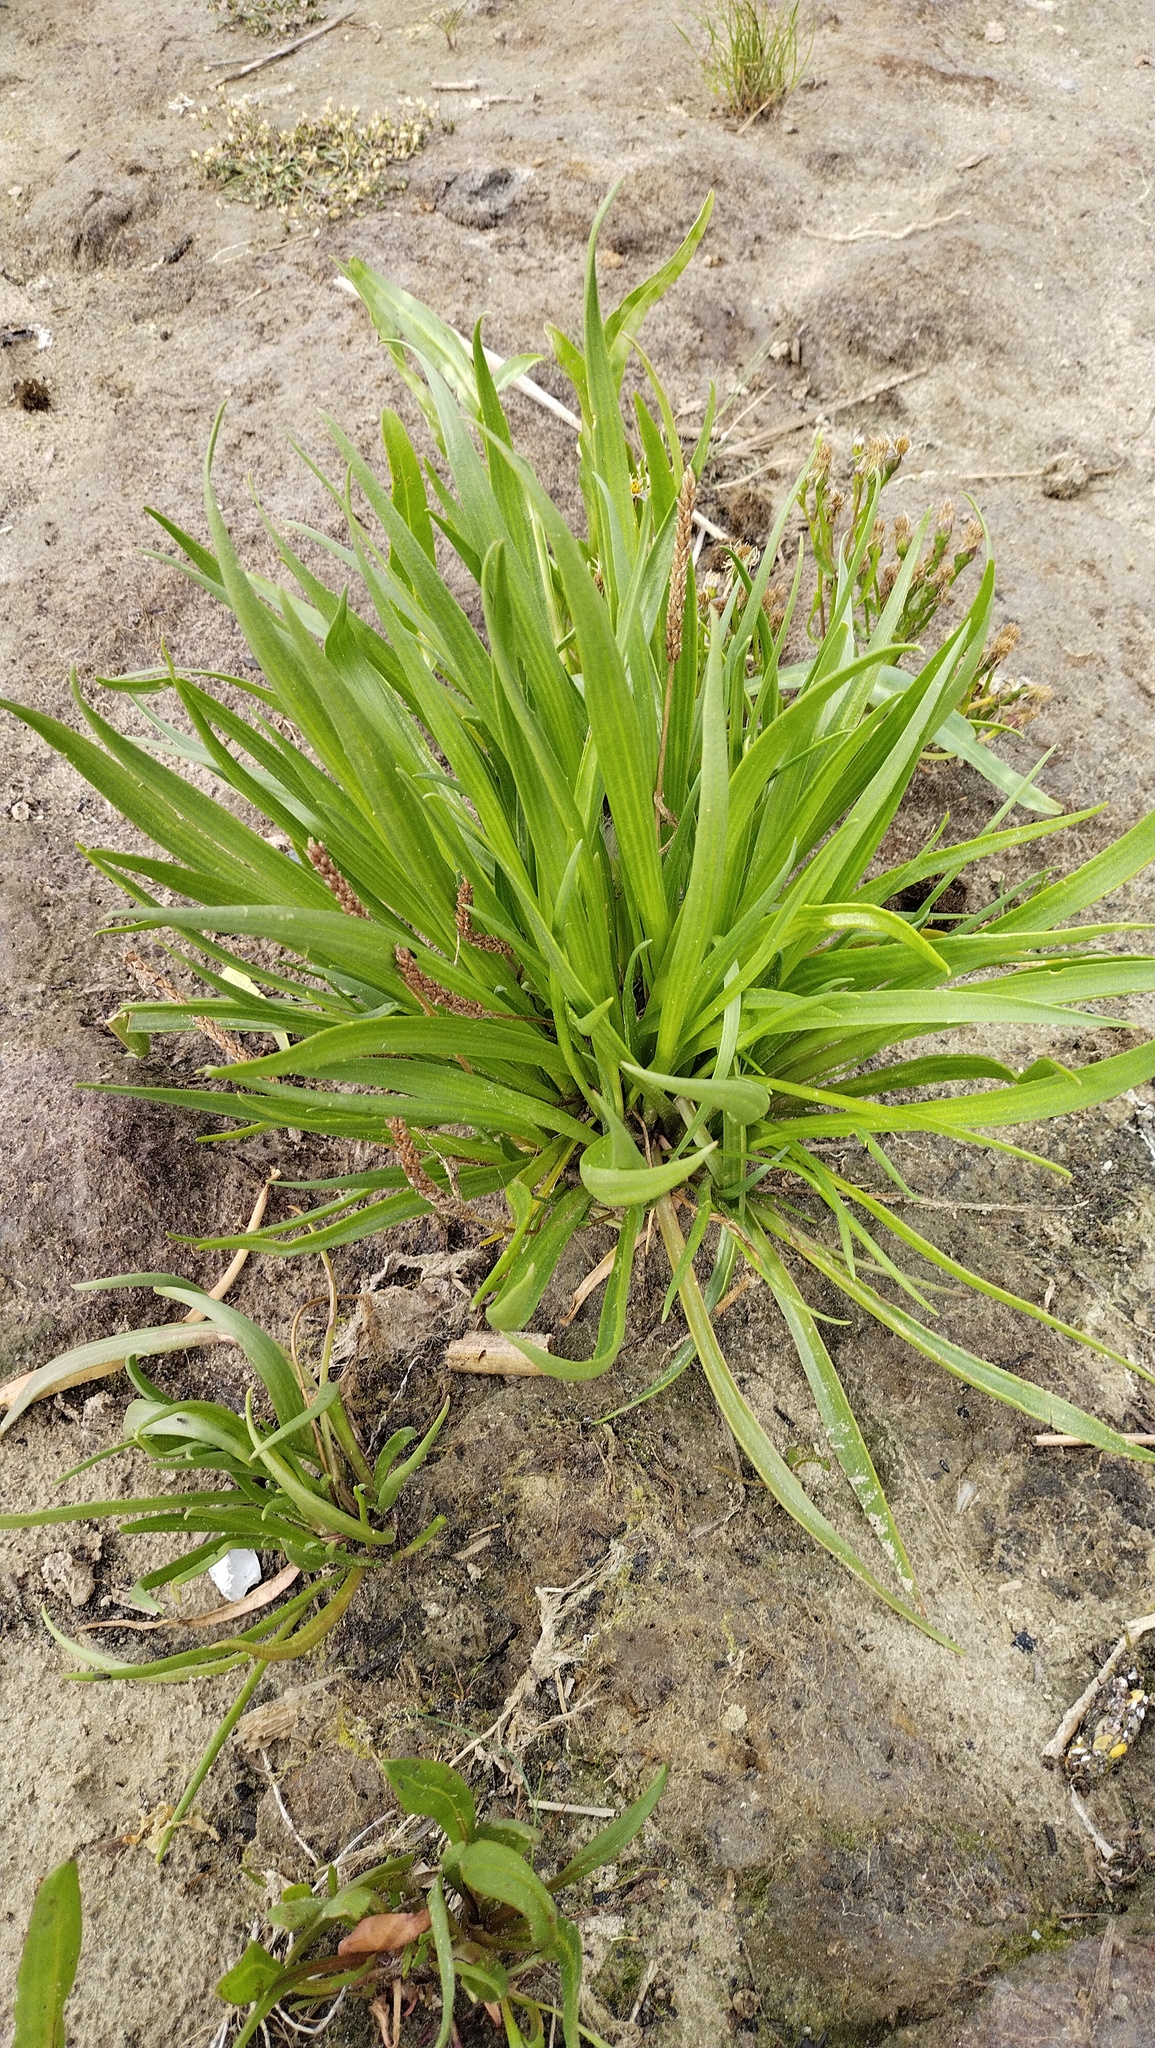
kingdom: Plantae
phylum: Tracheophyta
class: Magnoliopsida
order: Lamiales
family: Plantaginaceae
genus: Plantago
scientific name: Plantago maritima
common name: Sea plantain
